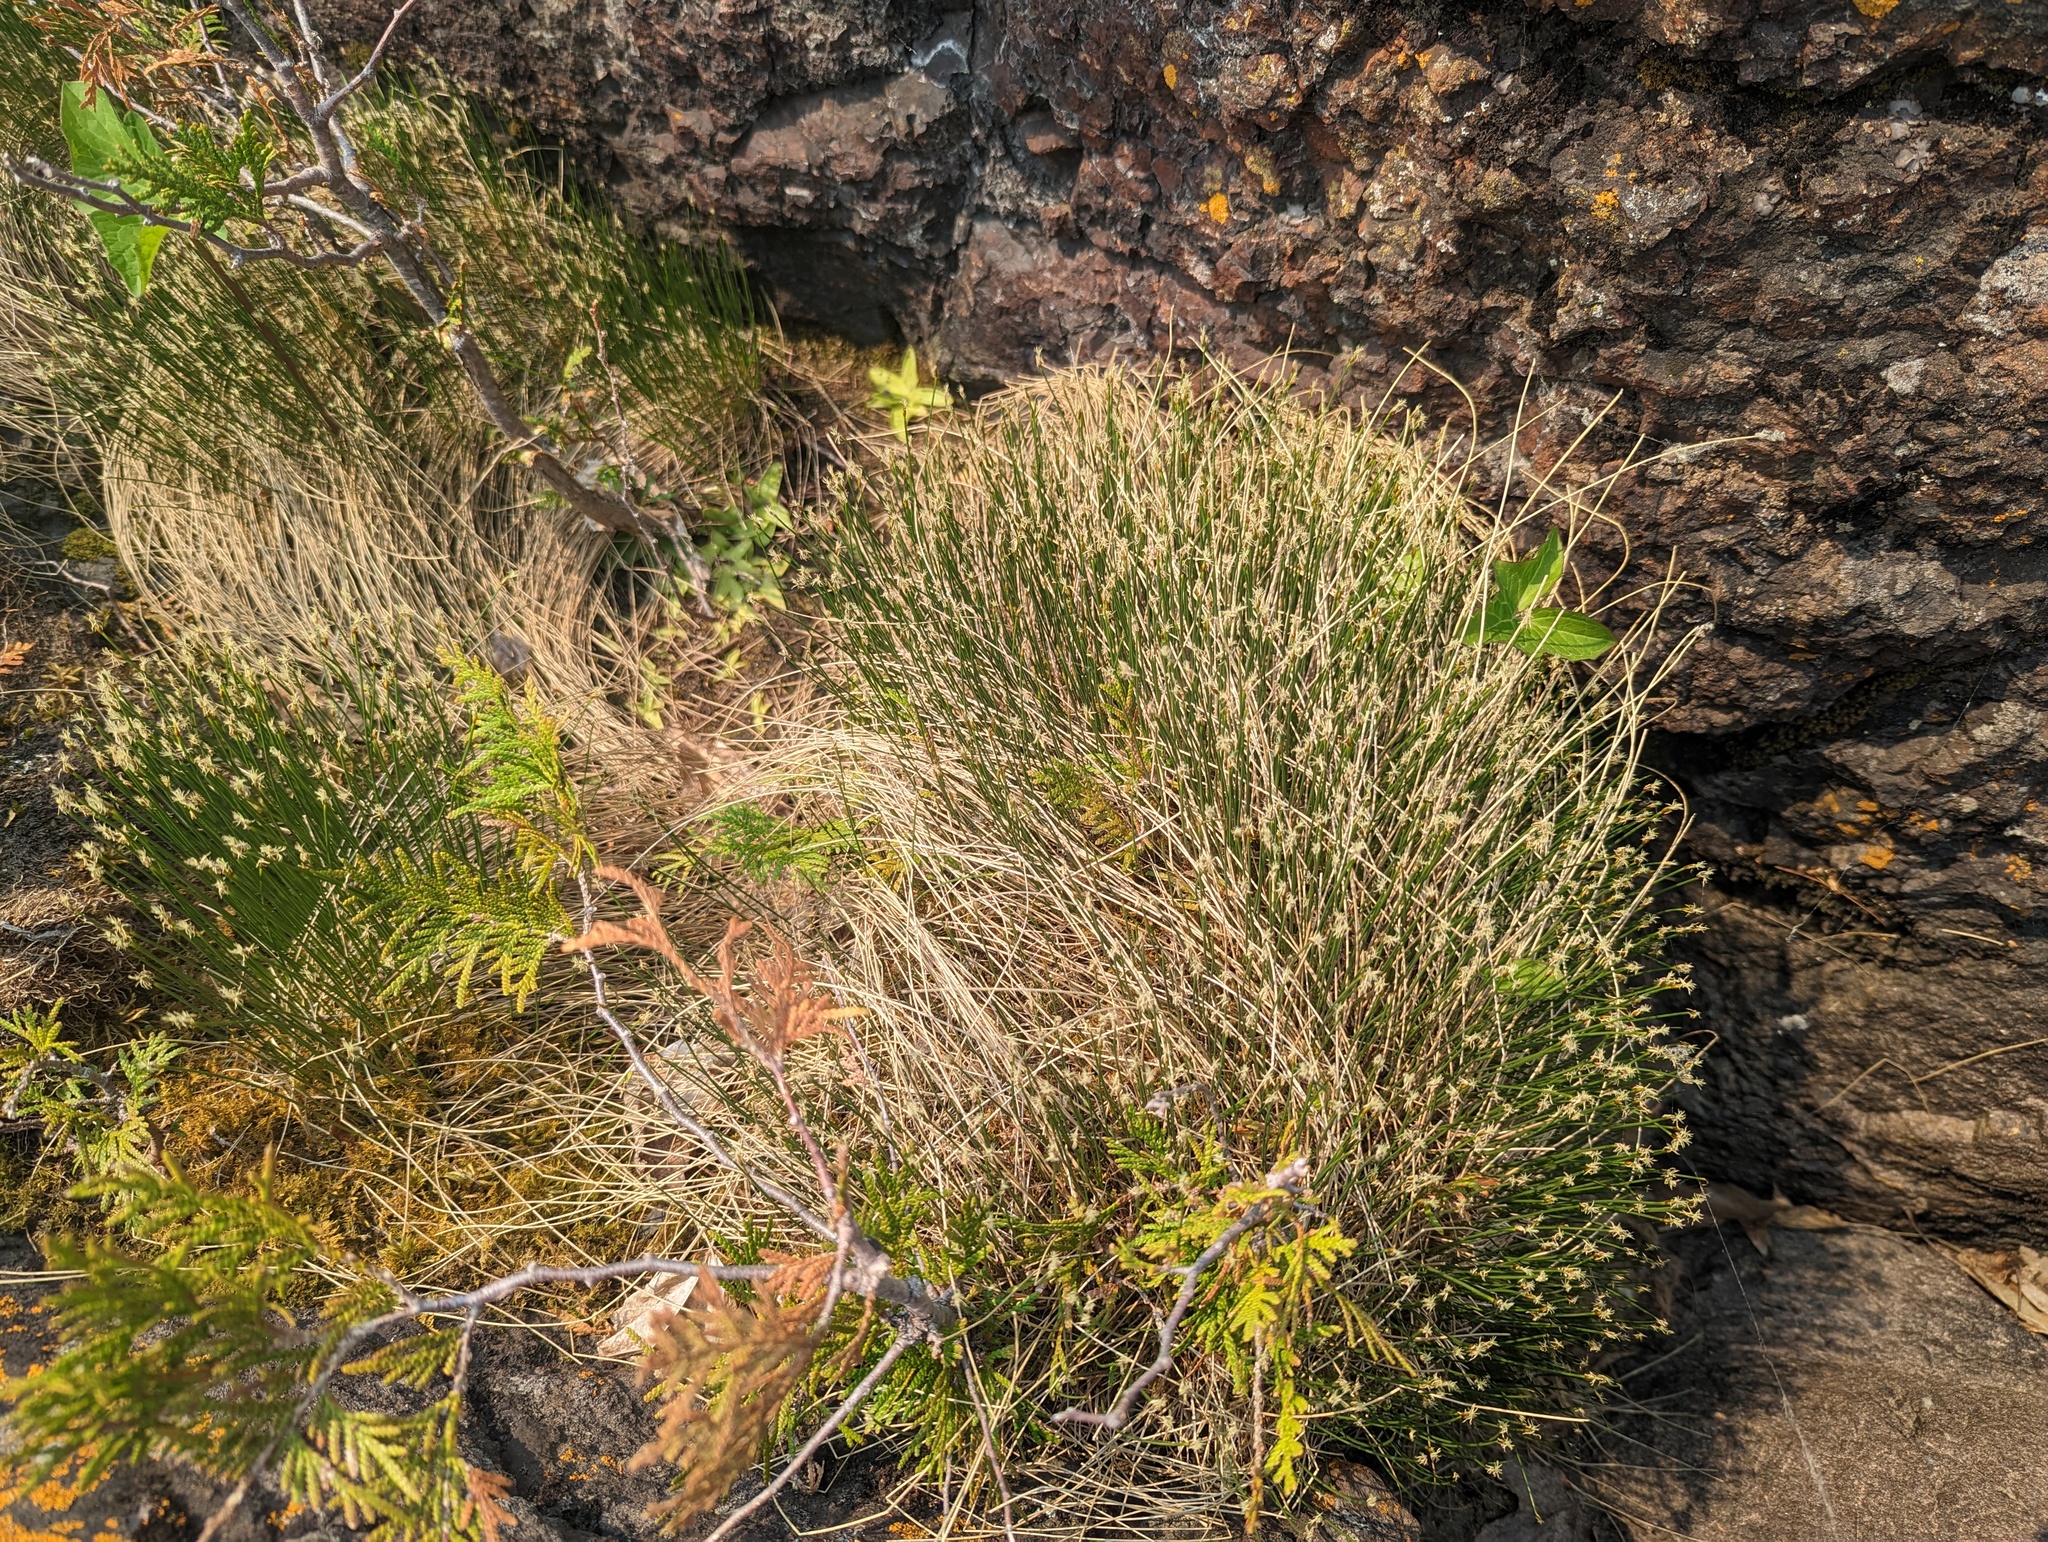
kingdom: Plantae
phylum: Tracheophyta
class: Liliopsida
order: Poales
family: Cyperaceae
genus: Trichophorum
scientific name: Trichophorum cespitosum
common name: Cespitose bulrush
